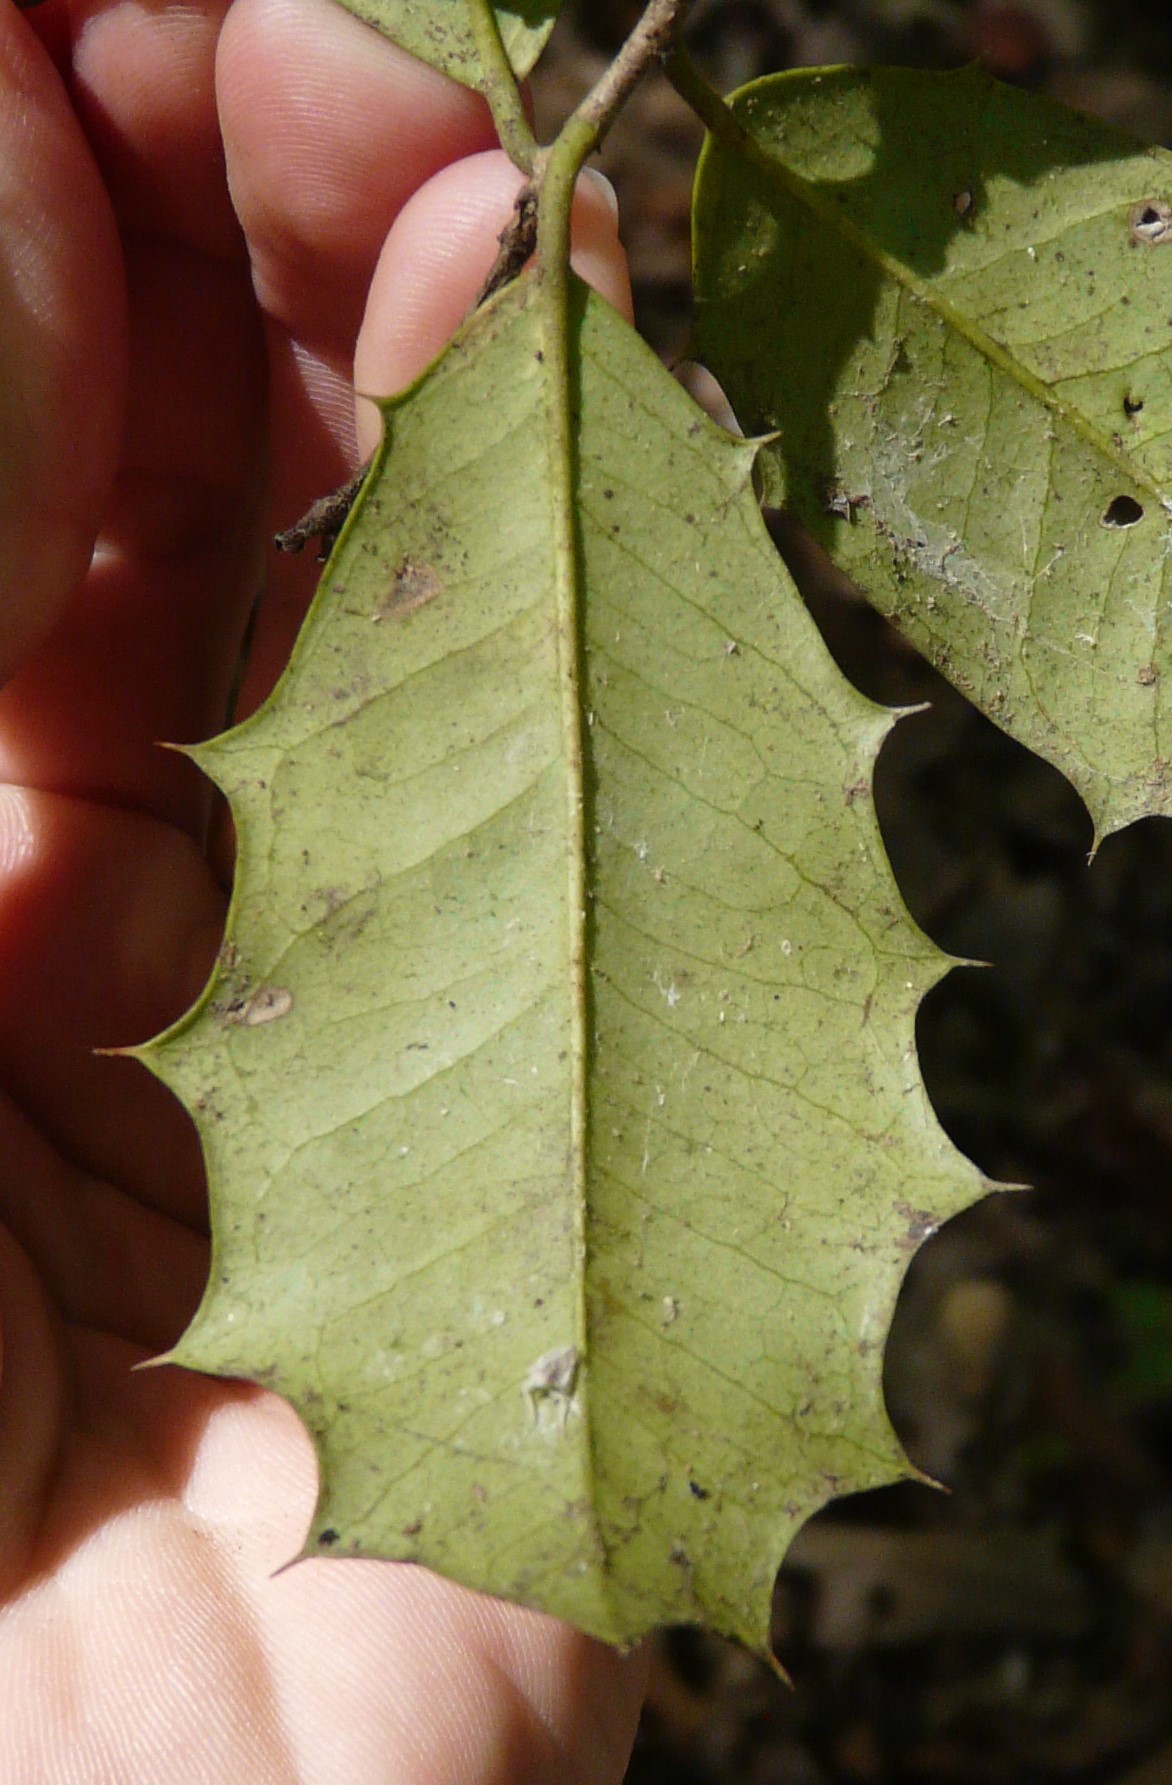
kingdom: Plantae
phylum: Tracheophyta
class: Magnoliopsida
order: Aquifoliales
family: Aquifoliaceae
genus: Ilex
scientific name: Ilex opaca
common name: American holly
